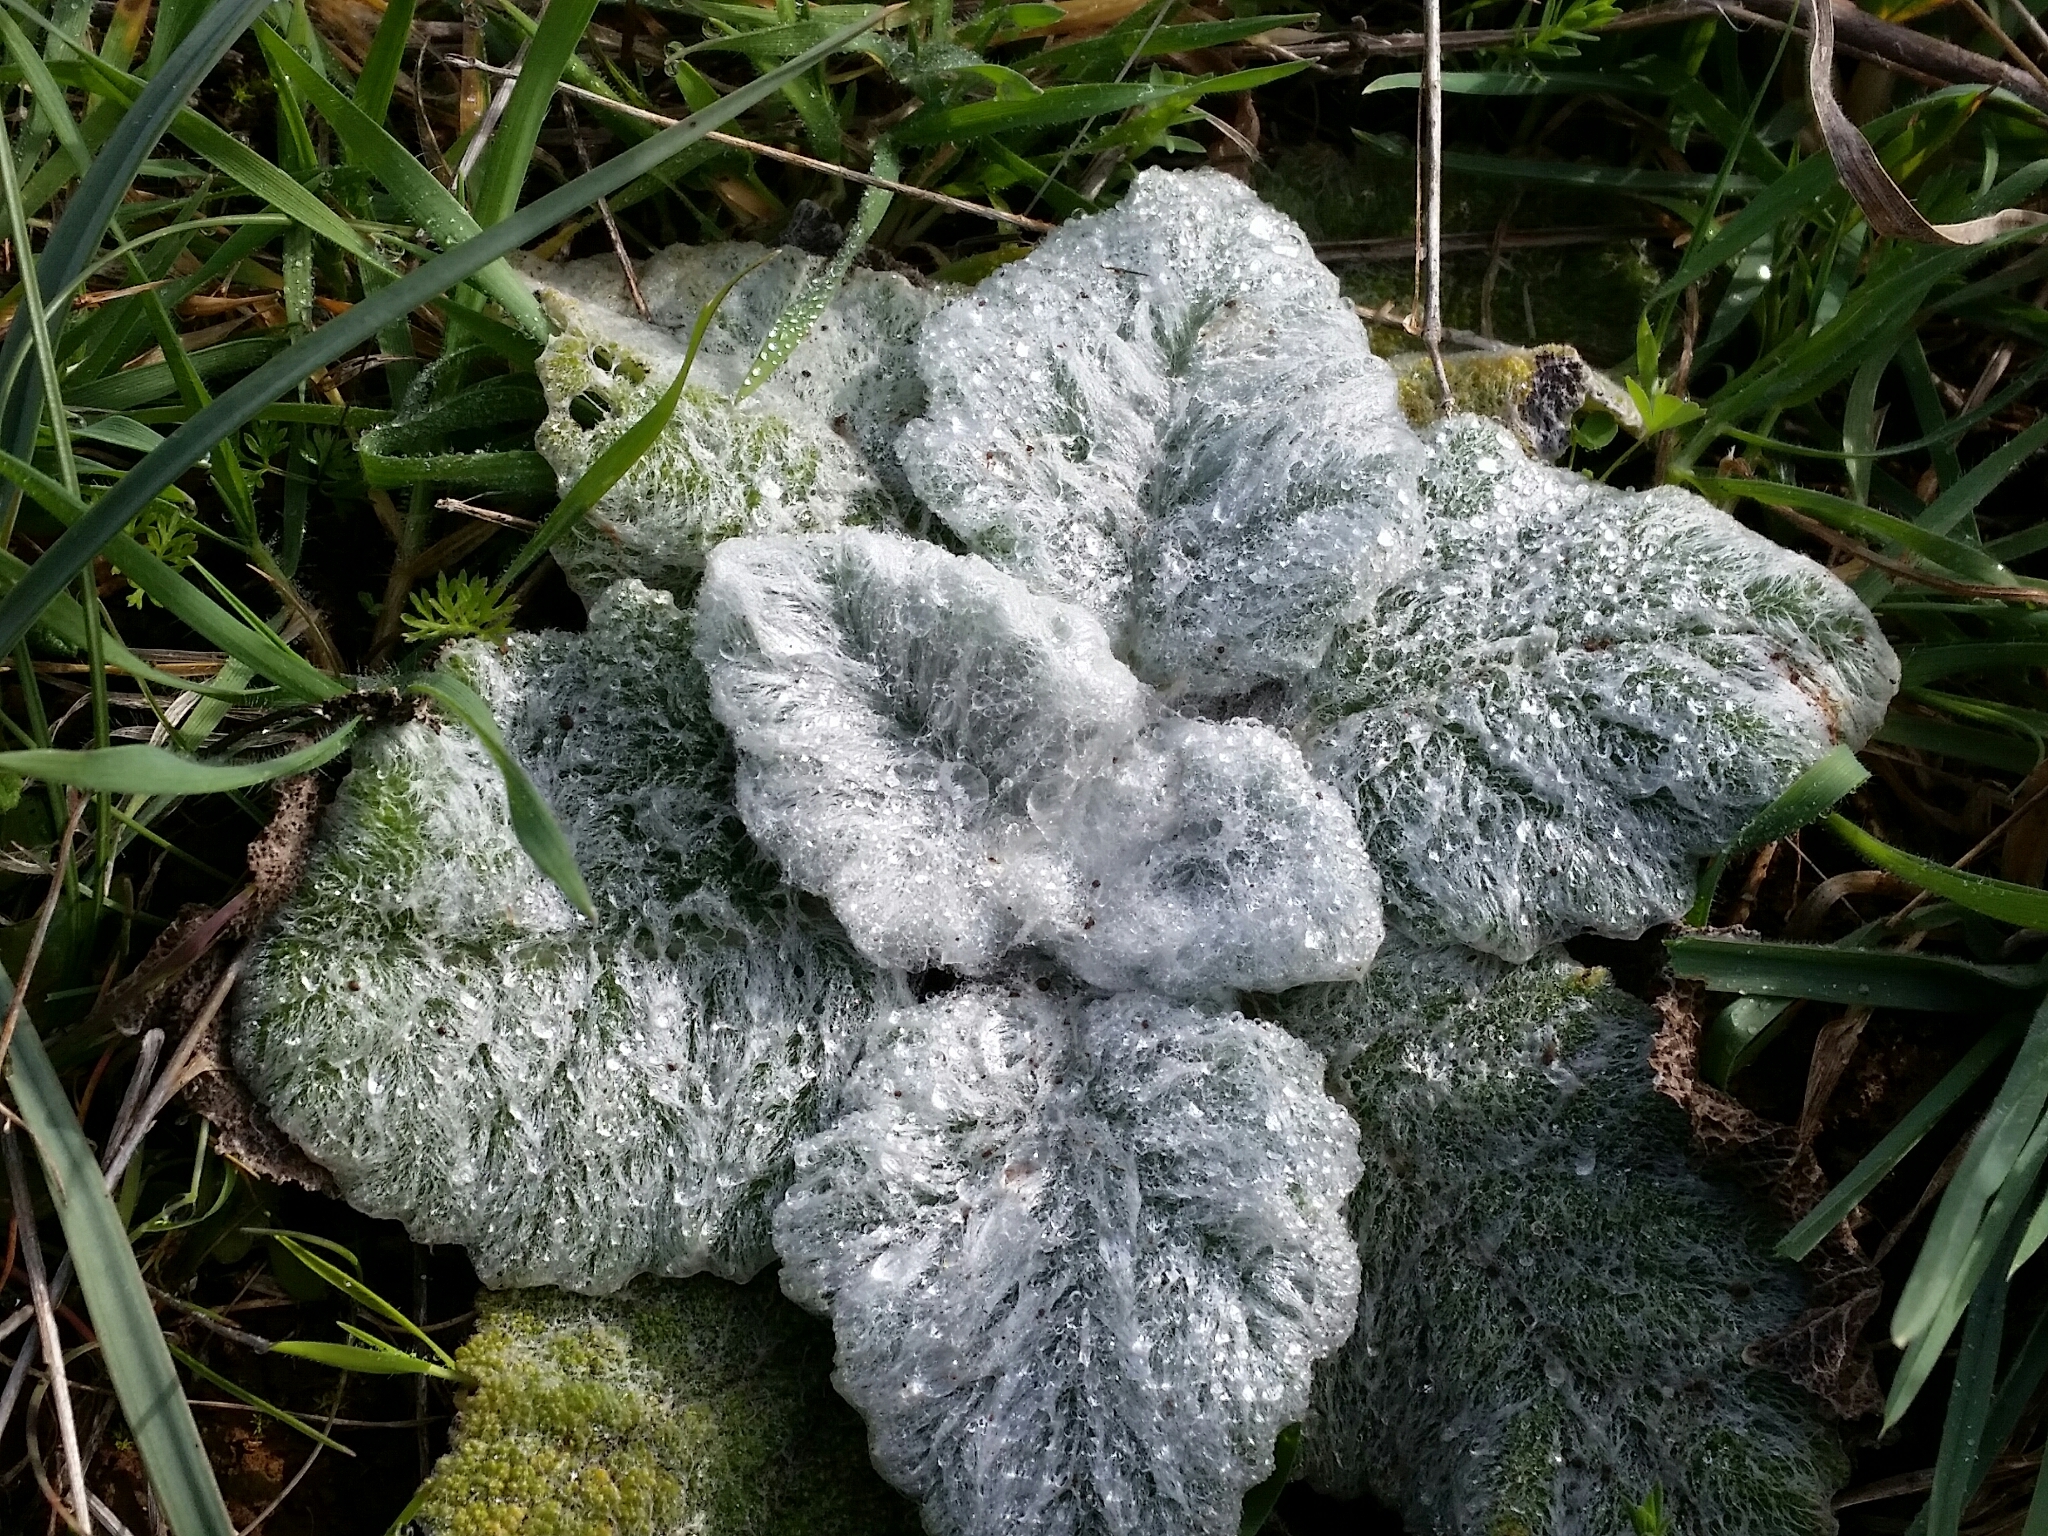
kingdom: Plantae
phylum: Tracheophyta
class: Magnoliopsida
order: Lamiales
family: Lamiaceae
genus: Salvia
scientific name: Salvia argentea
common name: Silver sage
